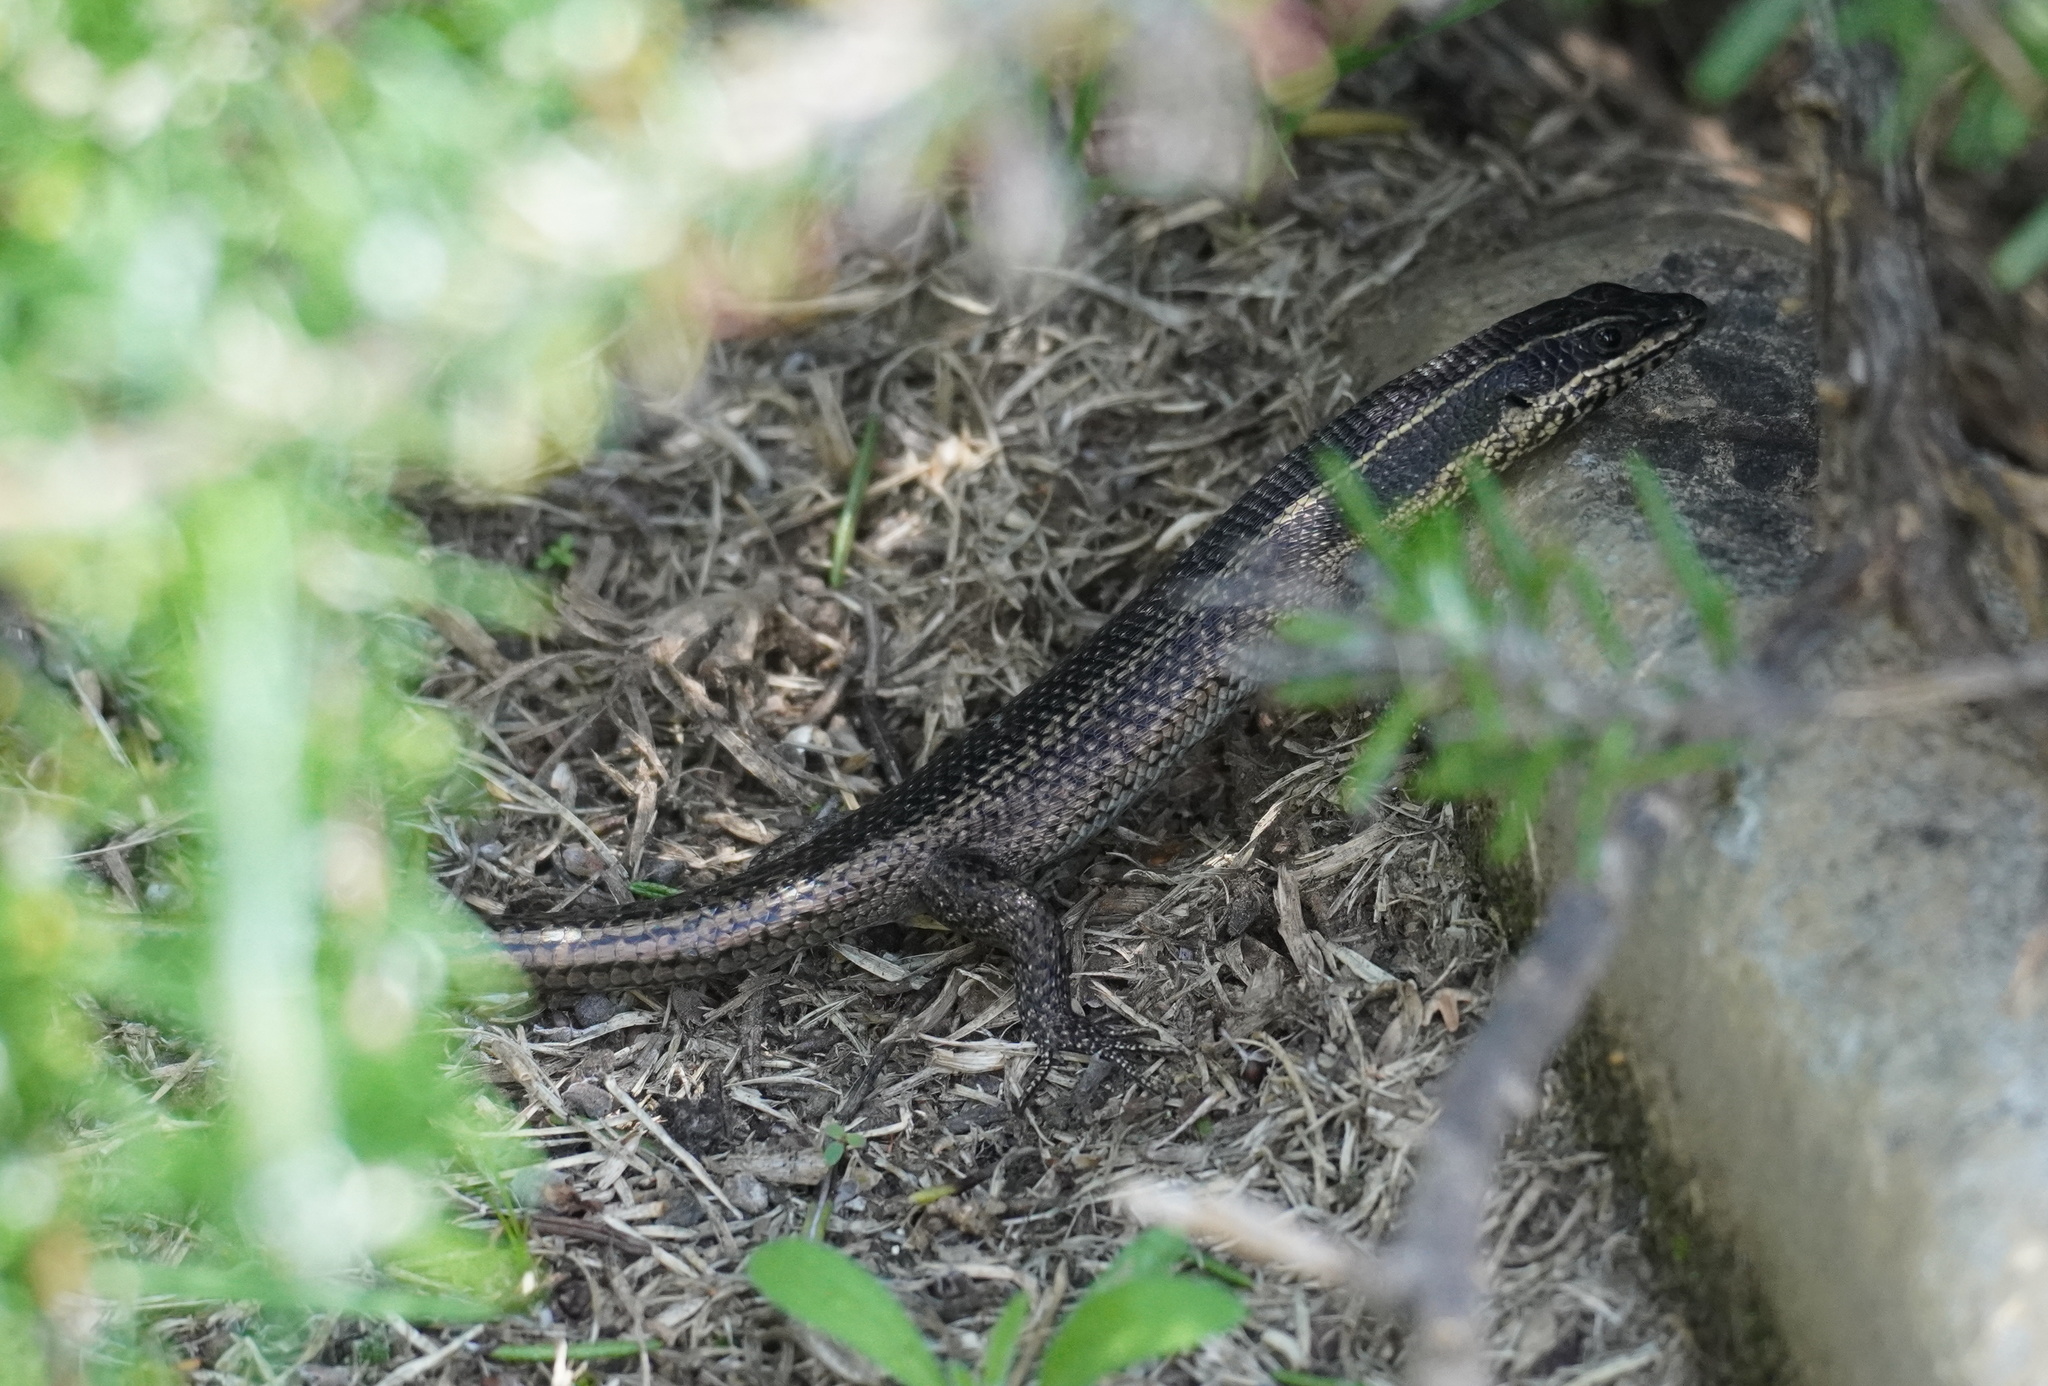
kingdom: Animalia
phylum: Chordata
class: Squamata
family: Scincidae
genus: Trachylepis
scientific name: Trachylepis punctatissima
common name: Montane speckled skink
